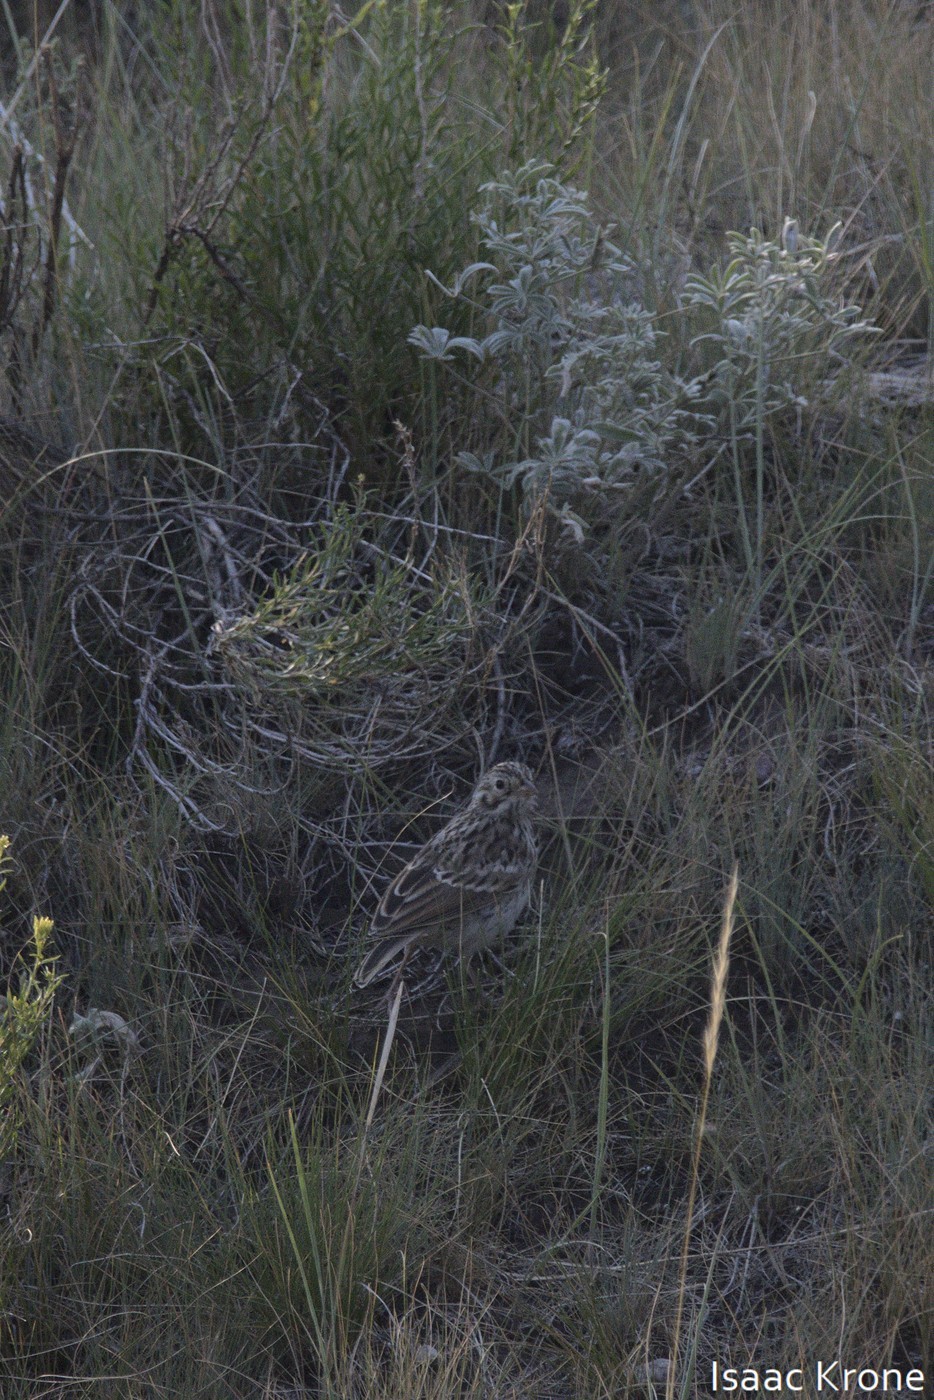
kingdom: Animalia
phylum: Chordata
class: Aves
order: Passeriformes
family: Passerellidae
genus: Pooecetes
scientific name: Pooecetes gramineus
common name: Vesper sparrow
